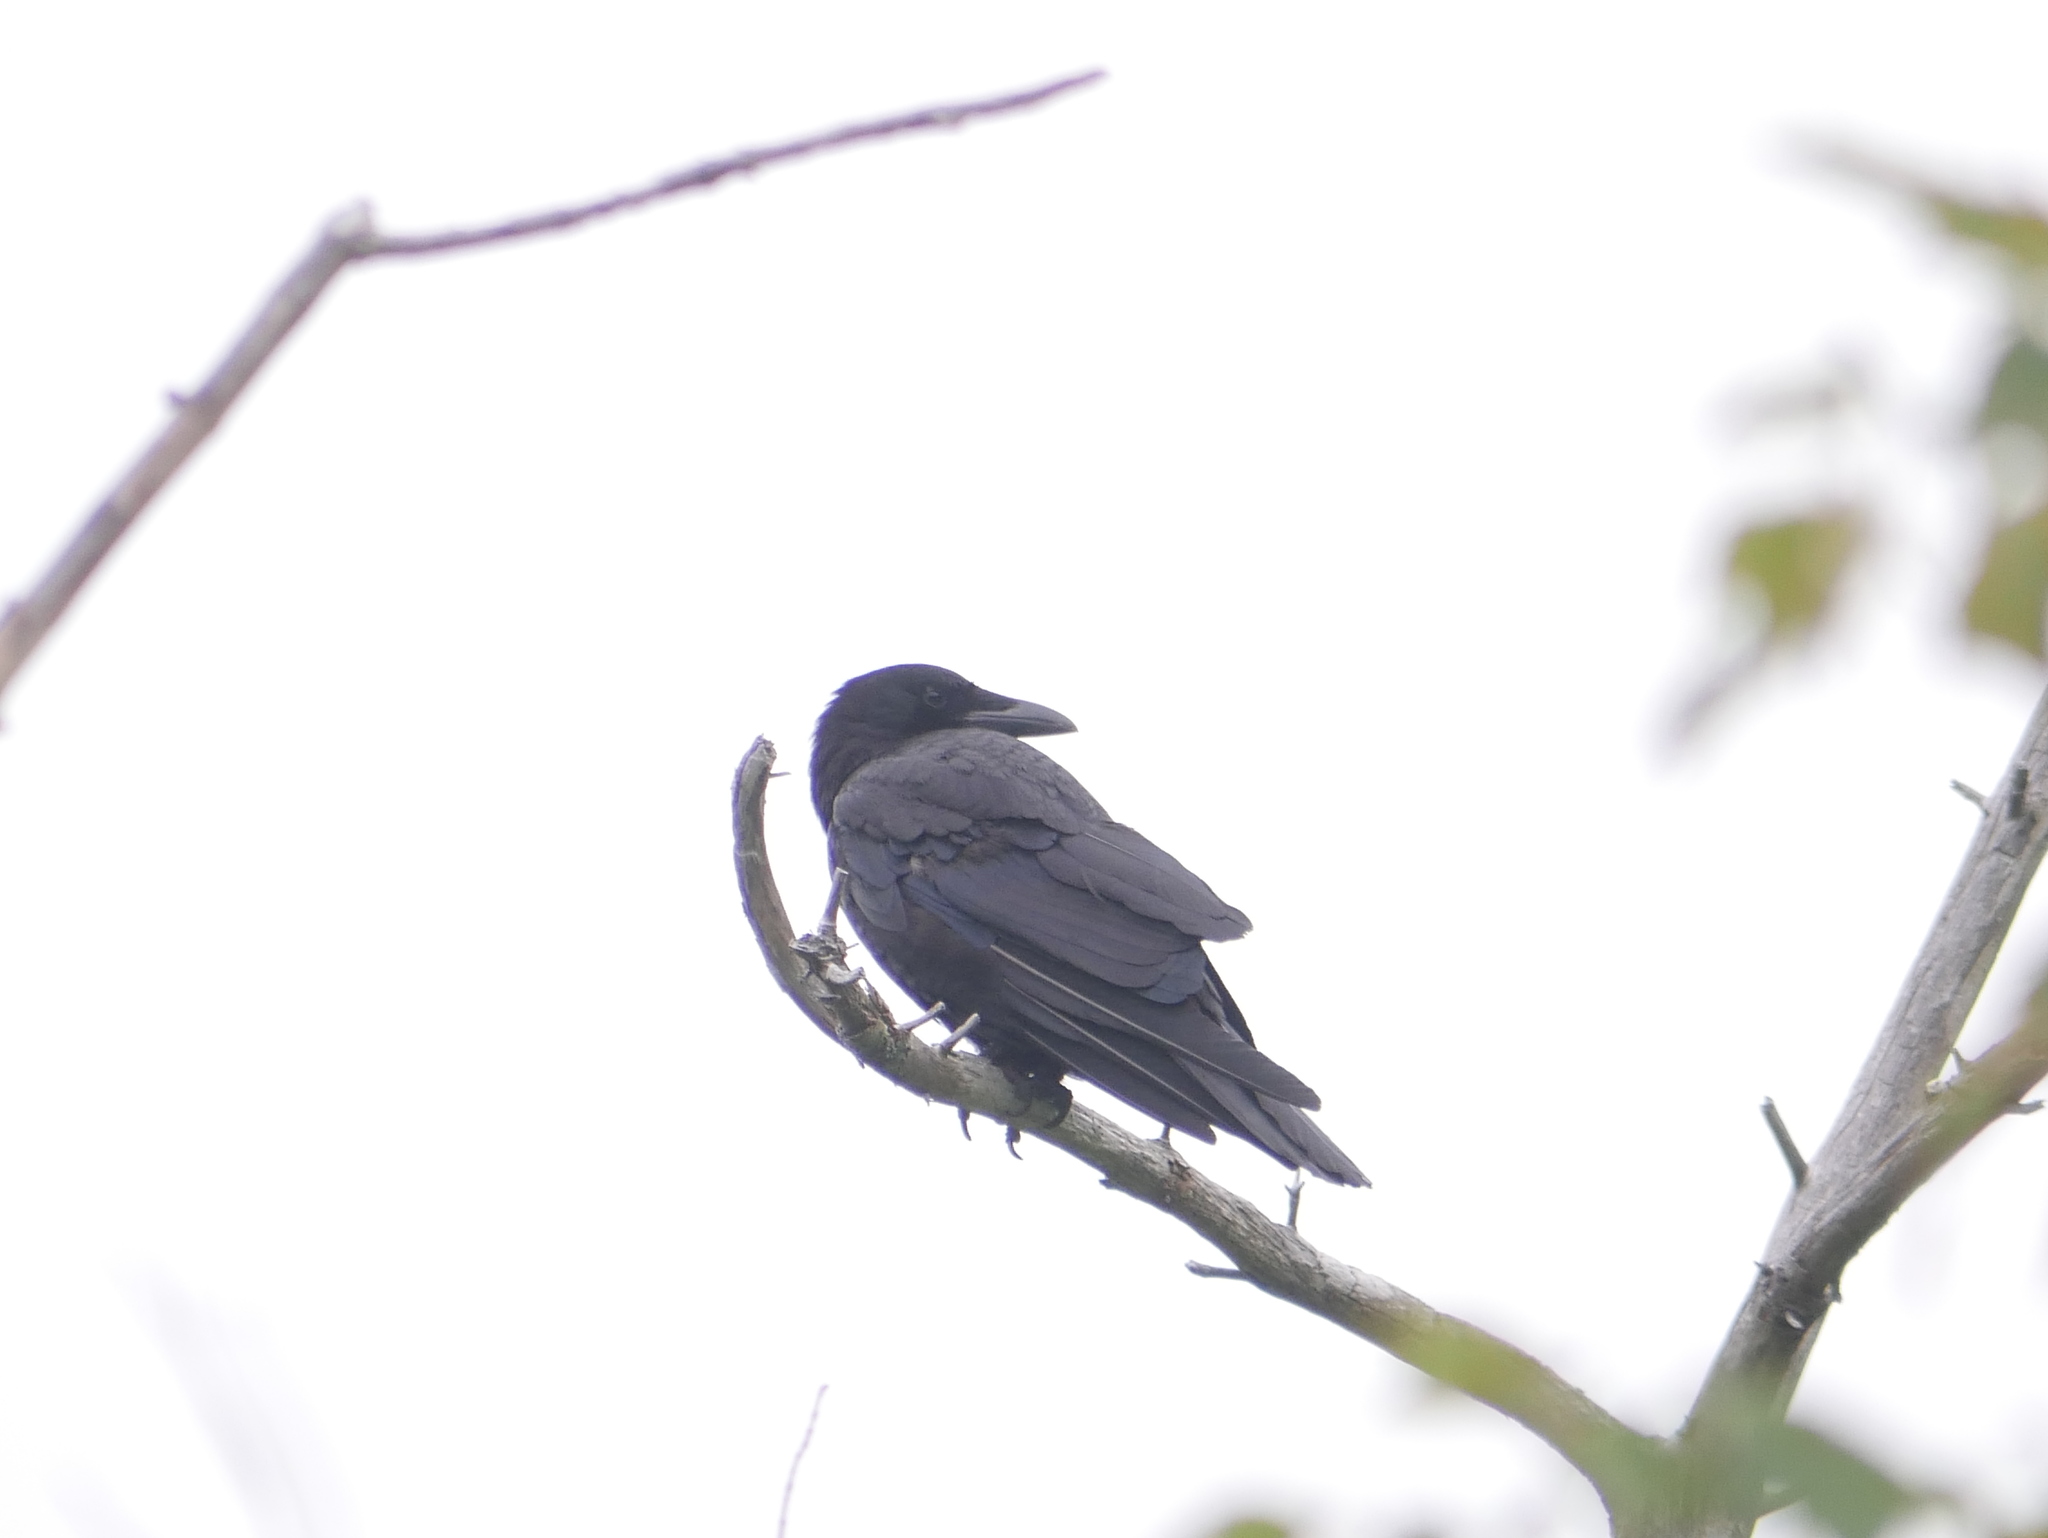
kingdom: Animalia
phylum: Chordata
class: Aves
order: Passeriformes
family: Corvidae
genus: Corvus
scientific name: Corvus brachyrhynchos
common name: American crow
